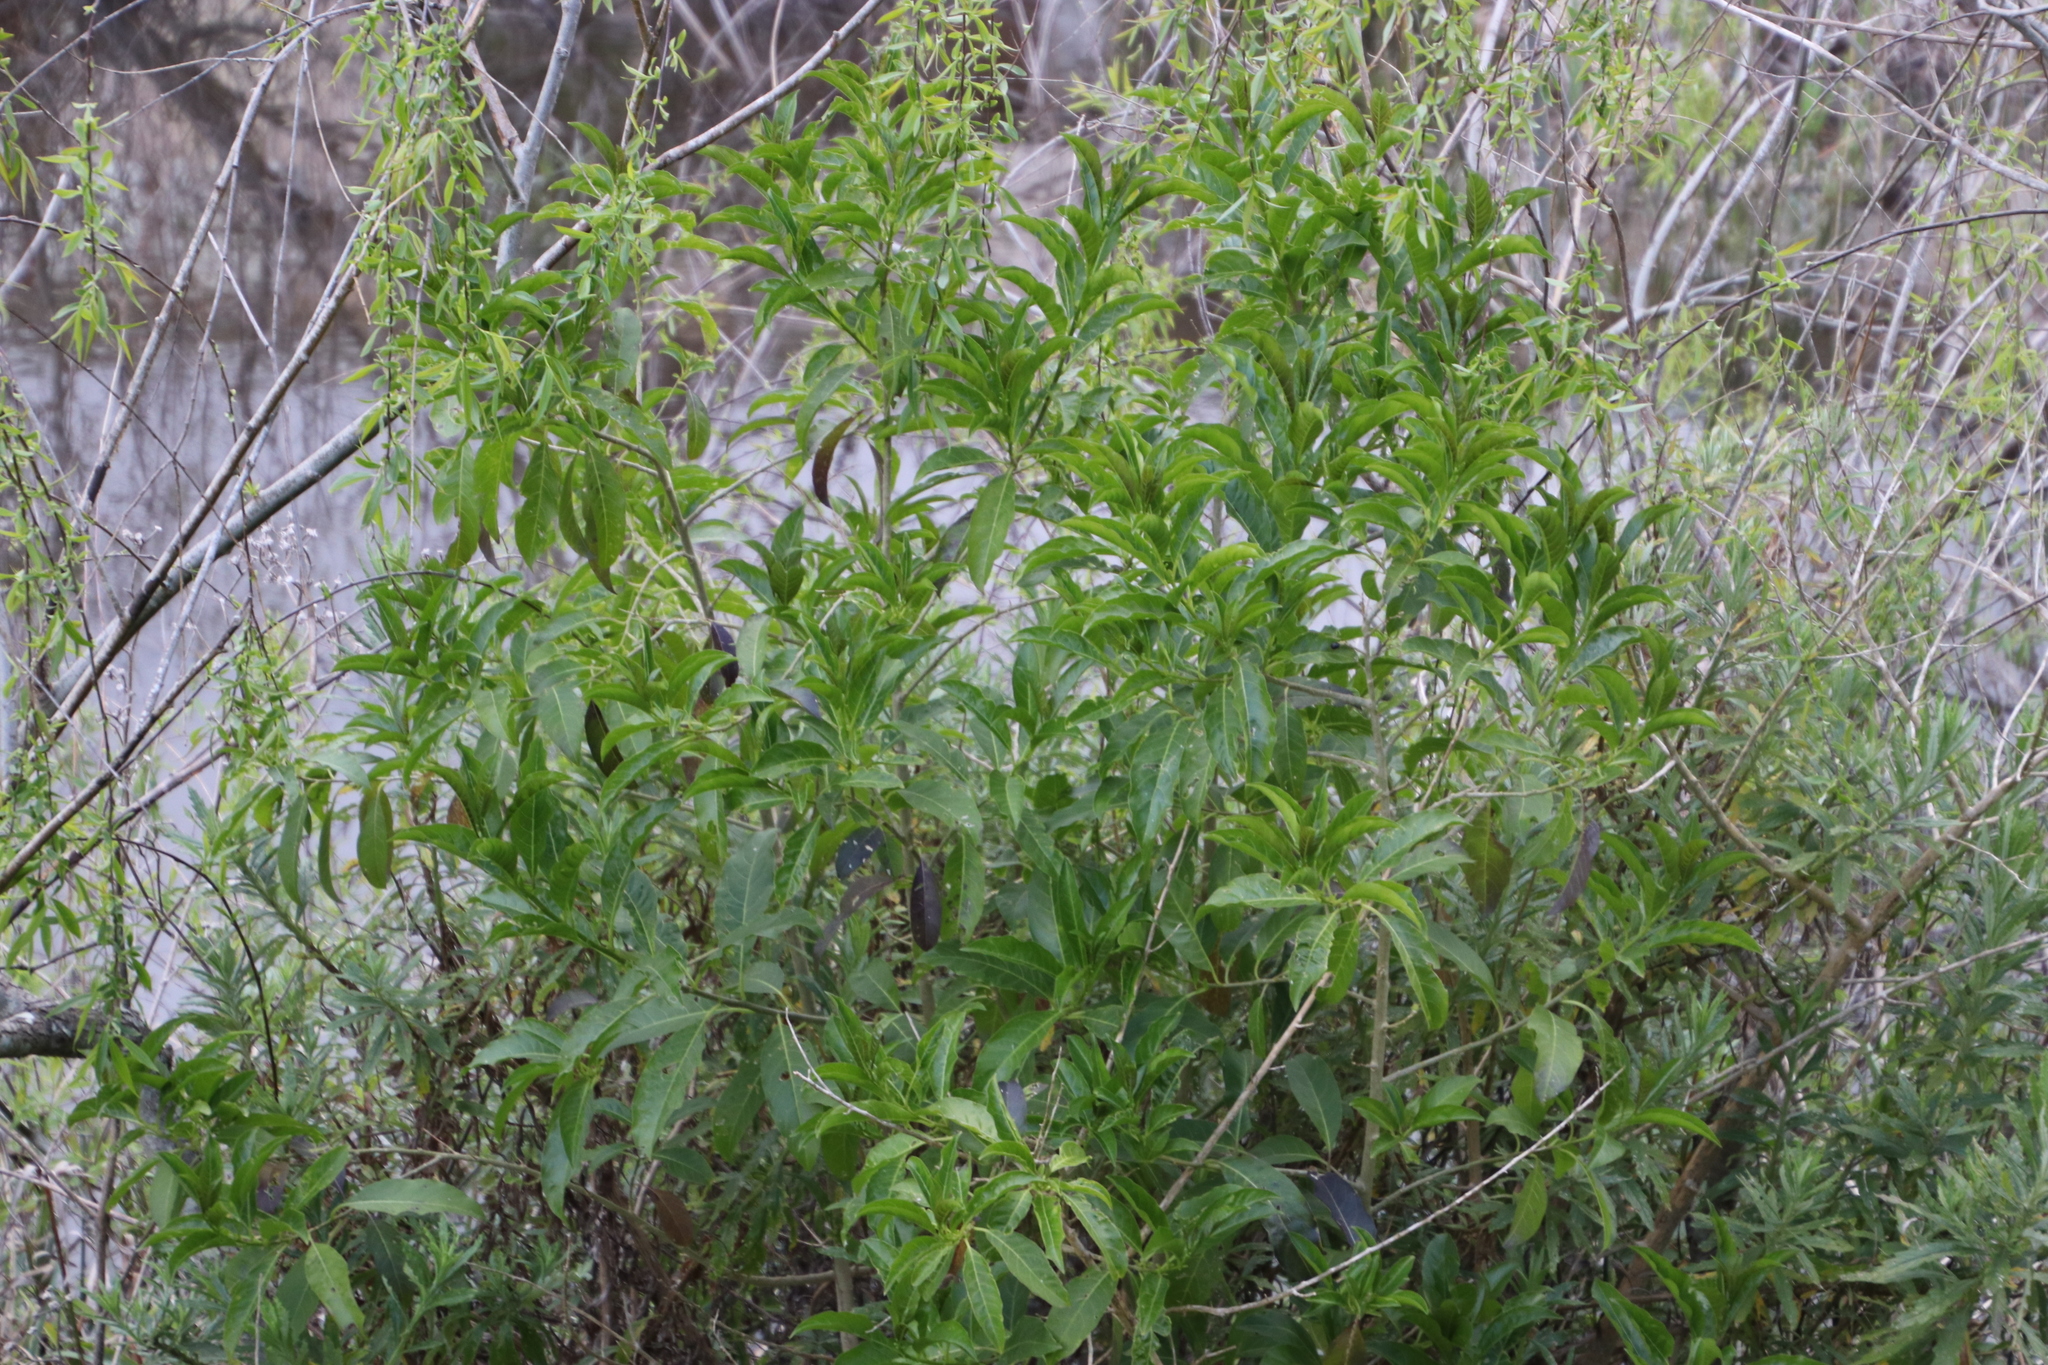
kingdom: Plantae
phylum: Tracheophyta
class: Magnoliopsida
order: Solanales
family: Solanaceae
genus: Cestrum
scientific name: Cestrum laevigatum
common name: Inkberry
